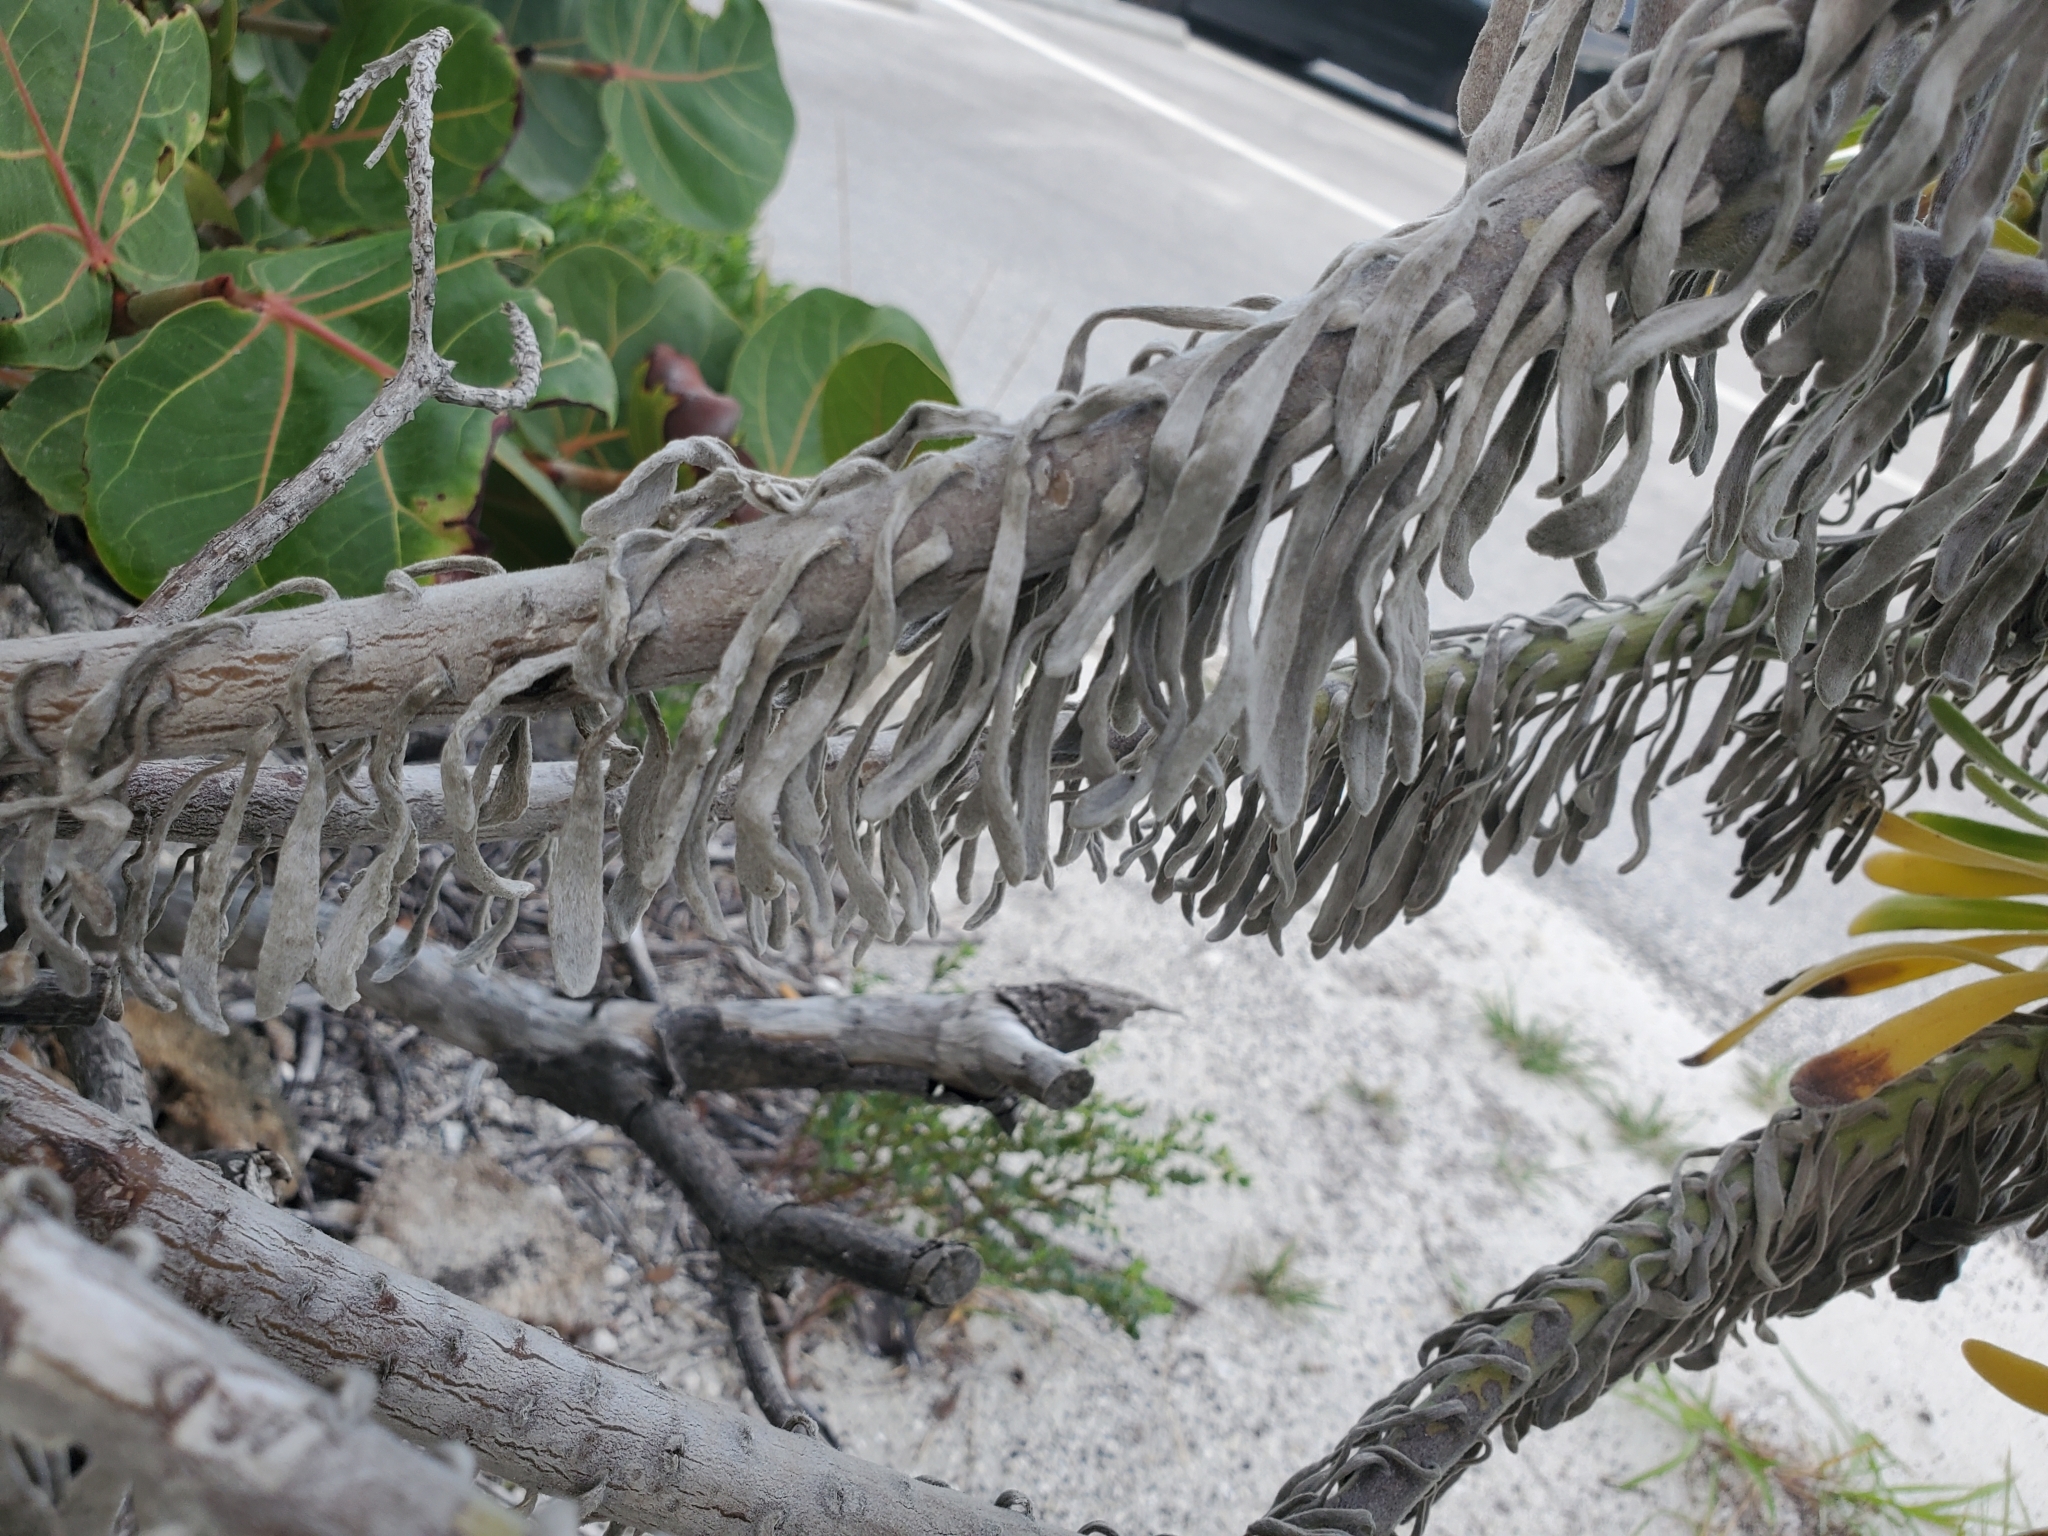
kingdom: Plantae
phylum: Tracheophyta
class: Magnoliopsida
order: Boraginales
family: Heliotropiaceae
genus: Tournefortia
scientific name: Tournefortia gnaphalodes
